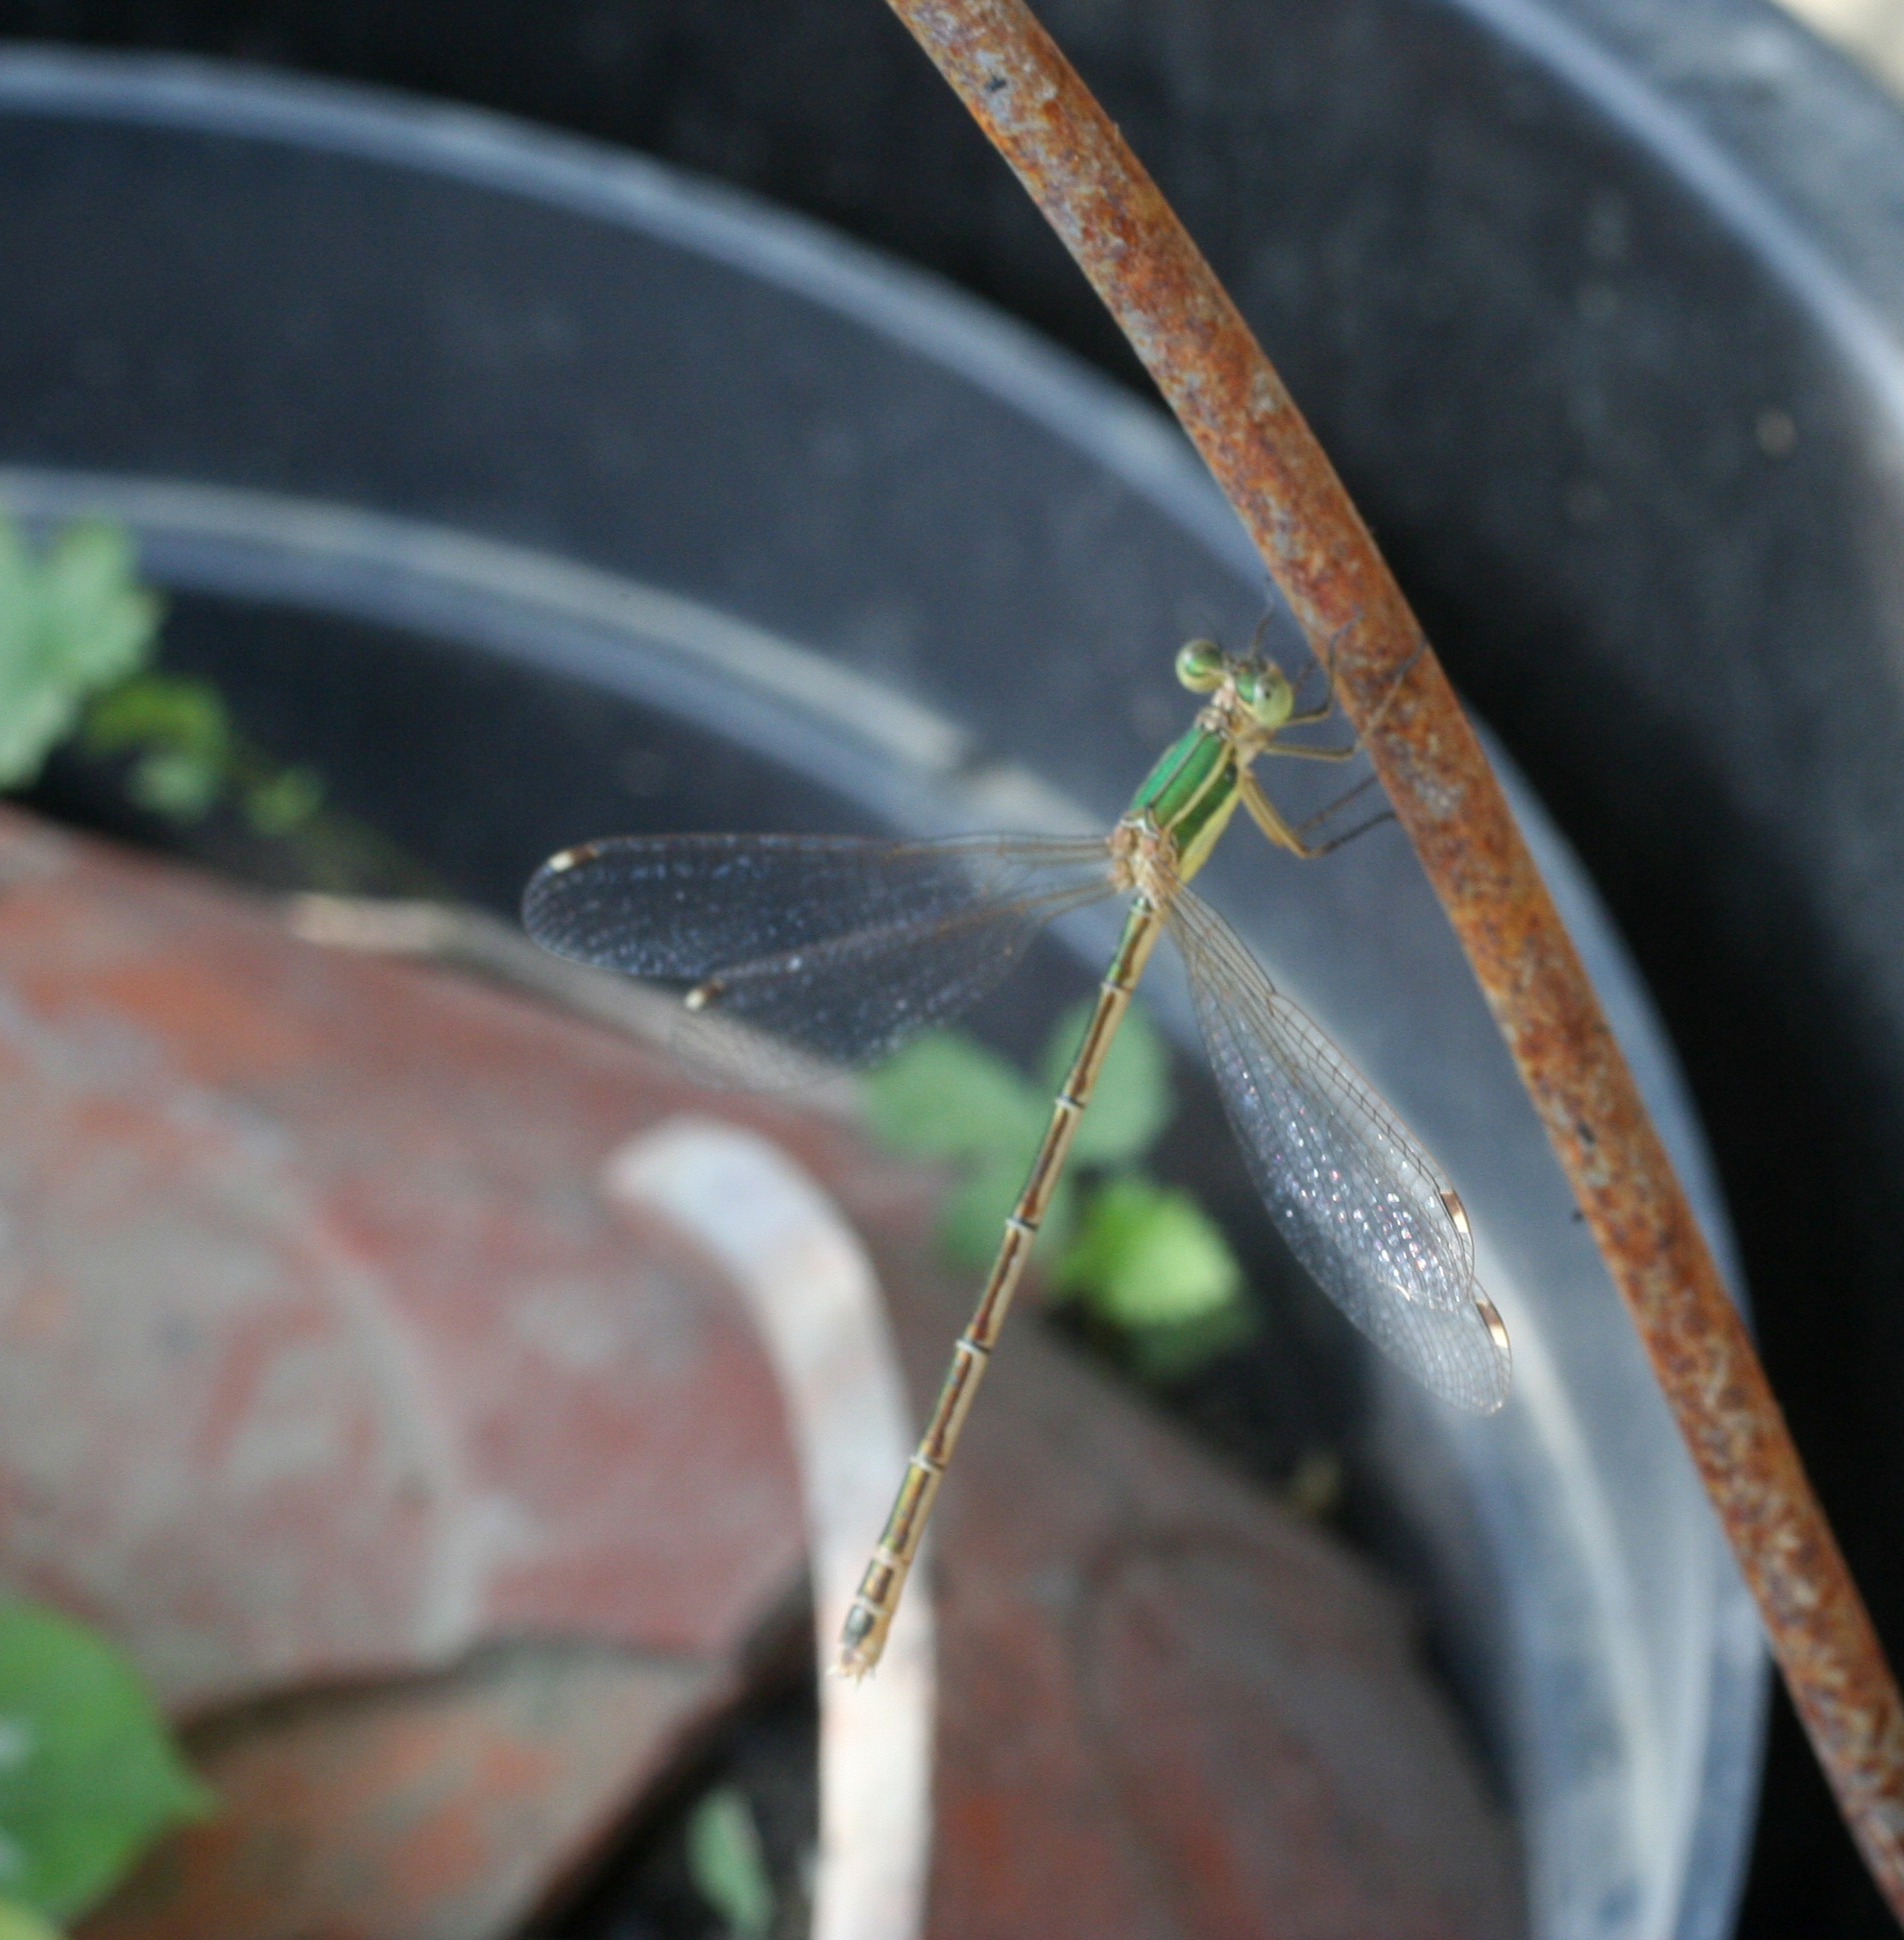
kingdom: Animalia
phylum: Arthropoda
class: Insecta
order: Odonata
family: Lestidae
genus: Lestes
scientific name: Lestes barbarus
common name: Migrant spreadwing
